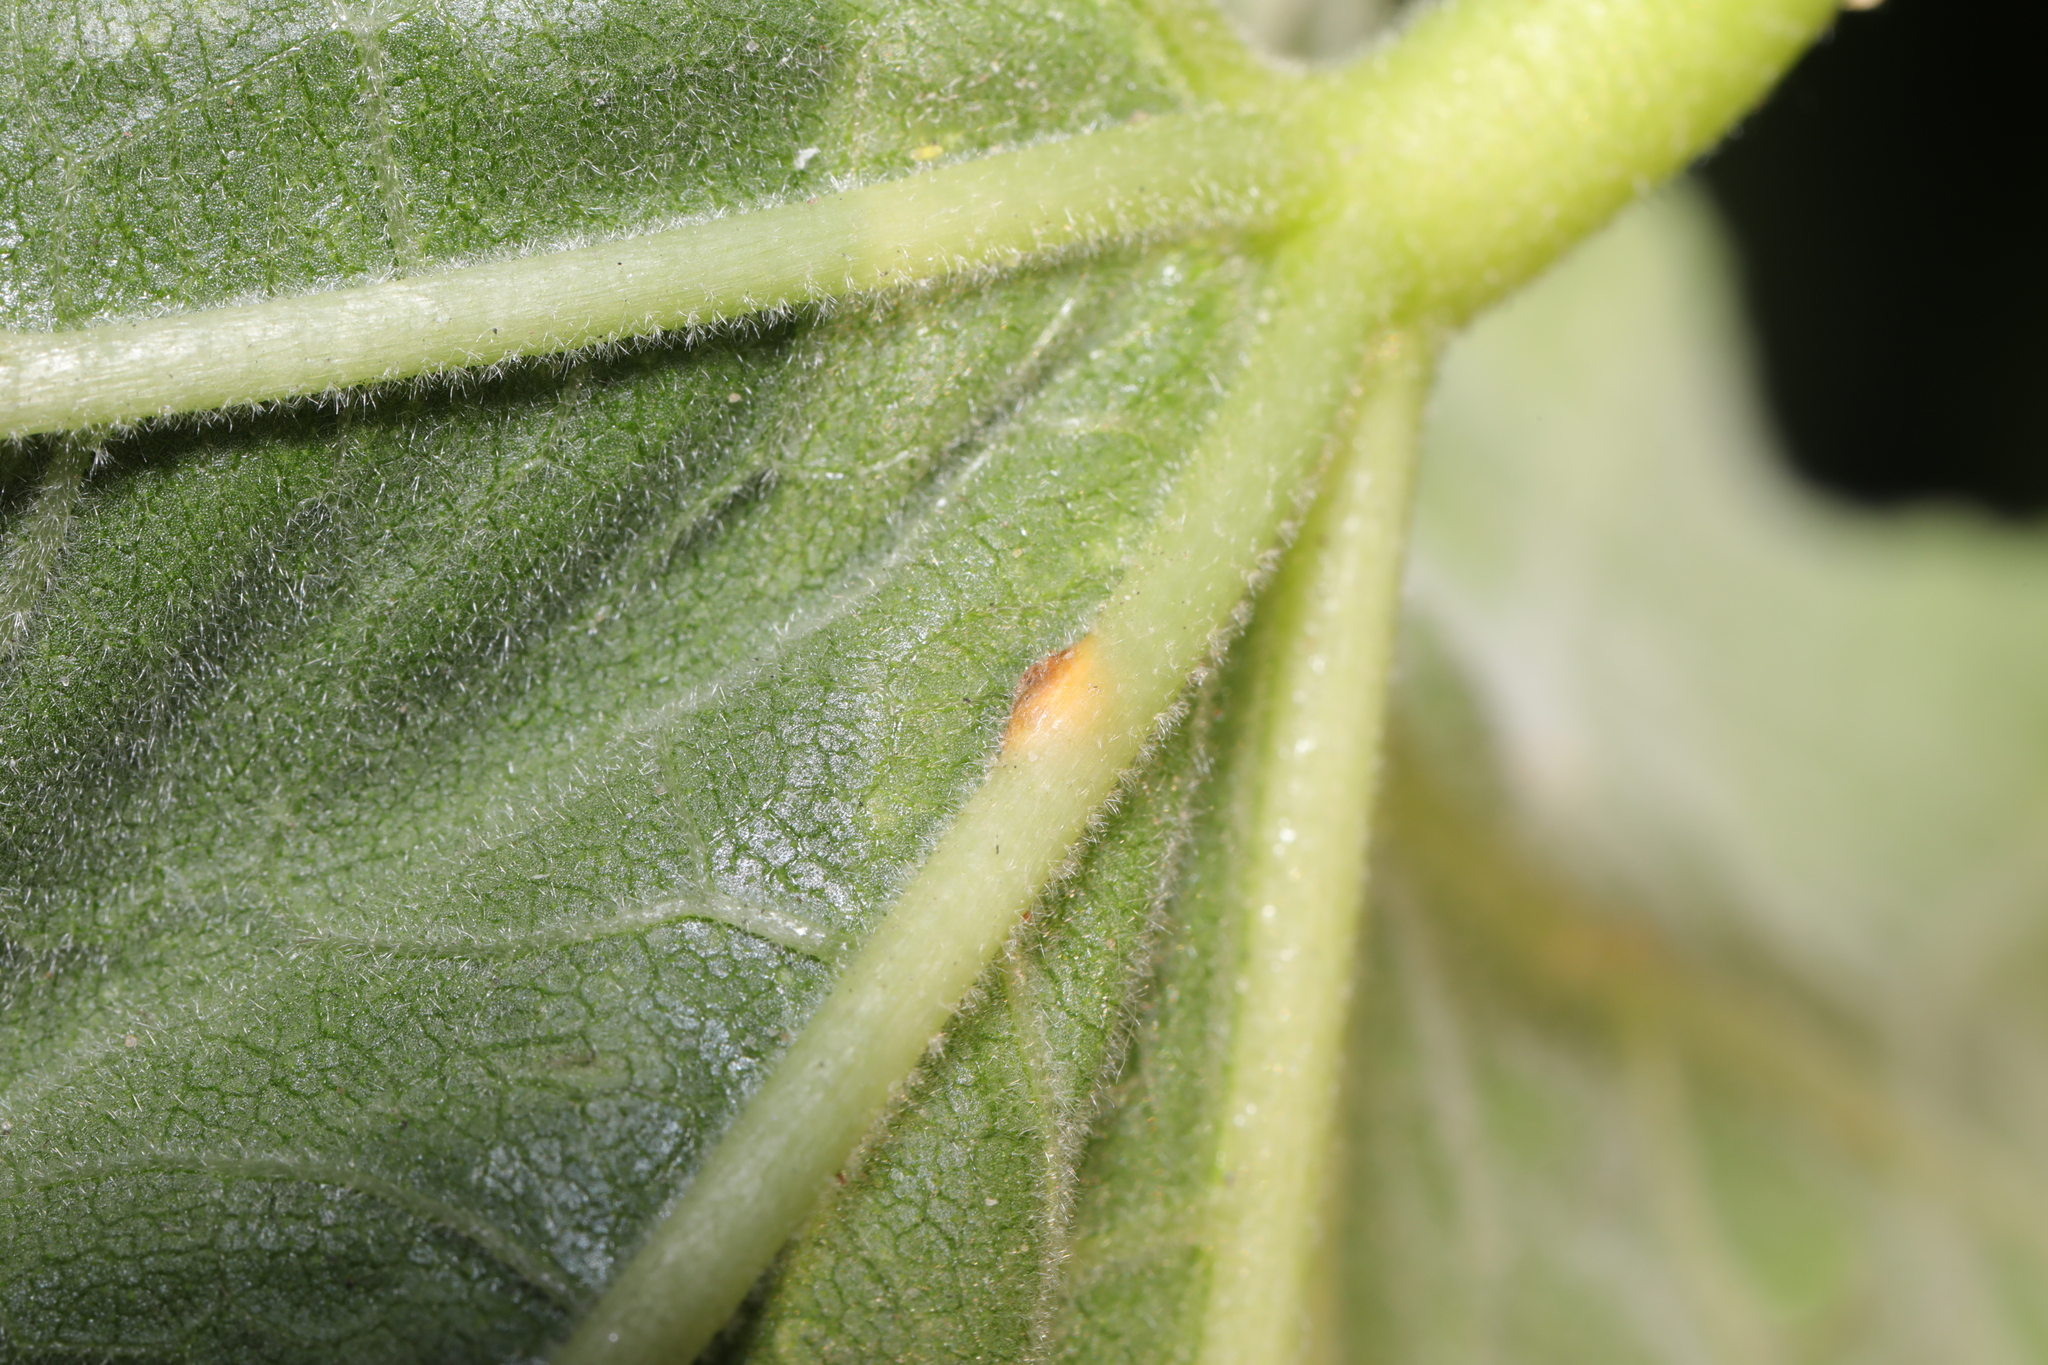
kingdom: Fungi
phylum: Basidiomycota
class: Pucciniomycetes
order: Pucciniales
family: Pucciniaceae
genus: Puccinia
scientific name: Puccinia malvacearum
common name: Hollyhock rust
